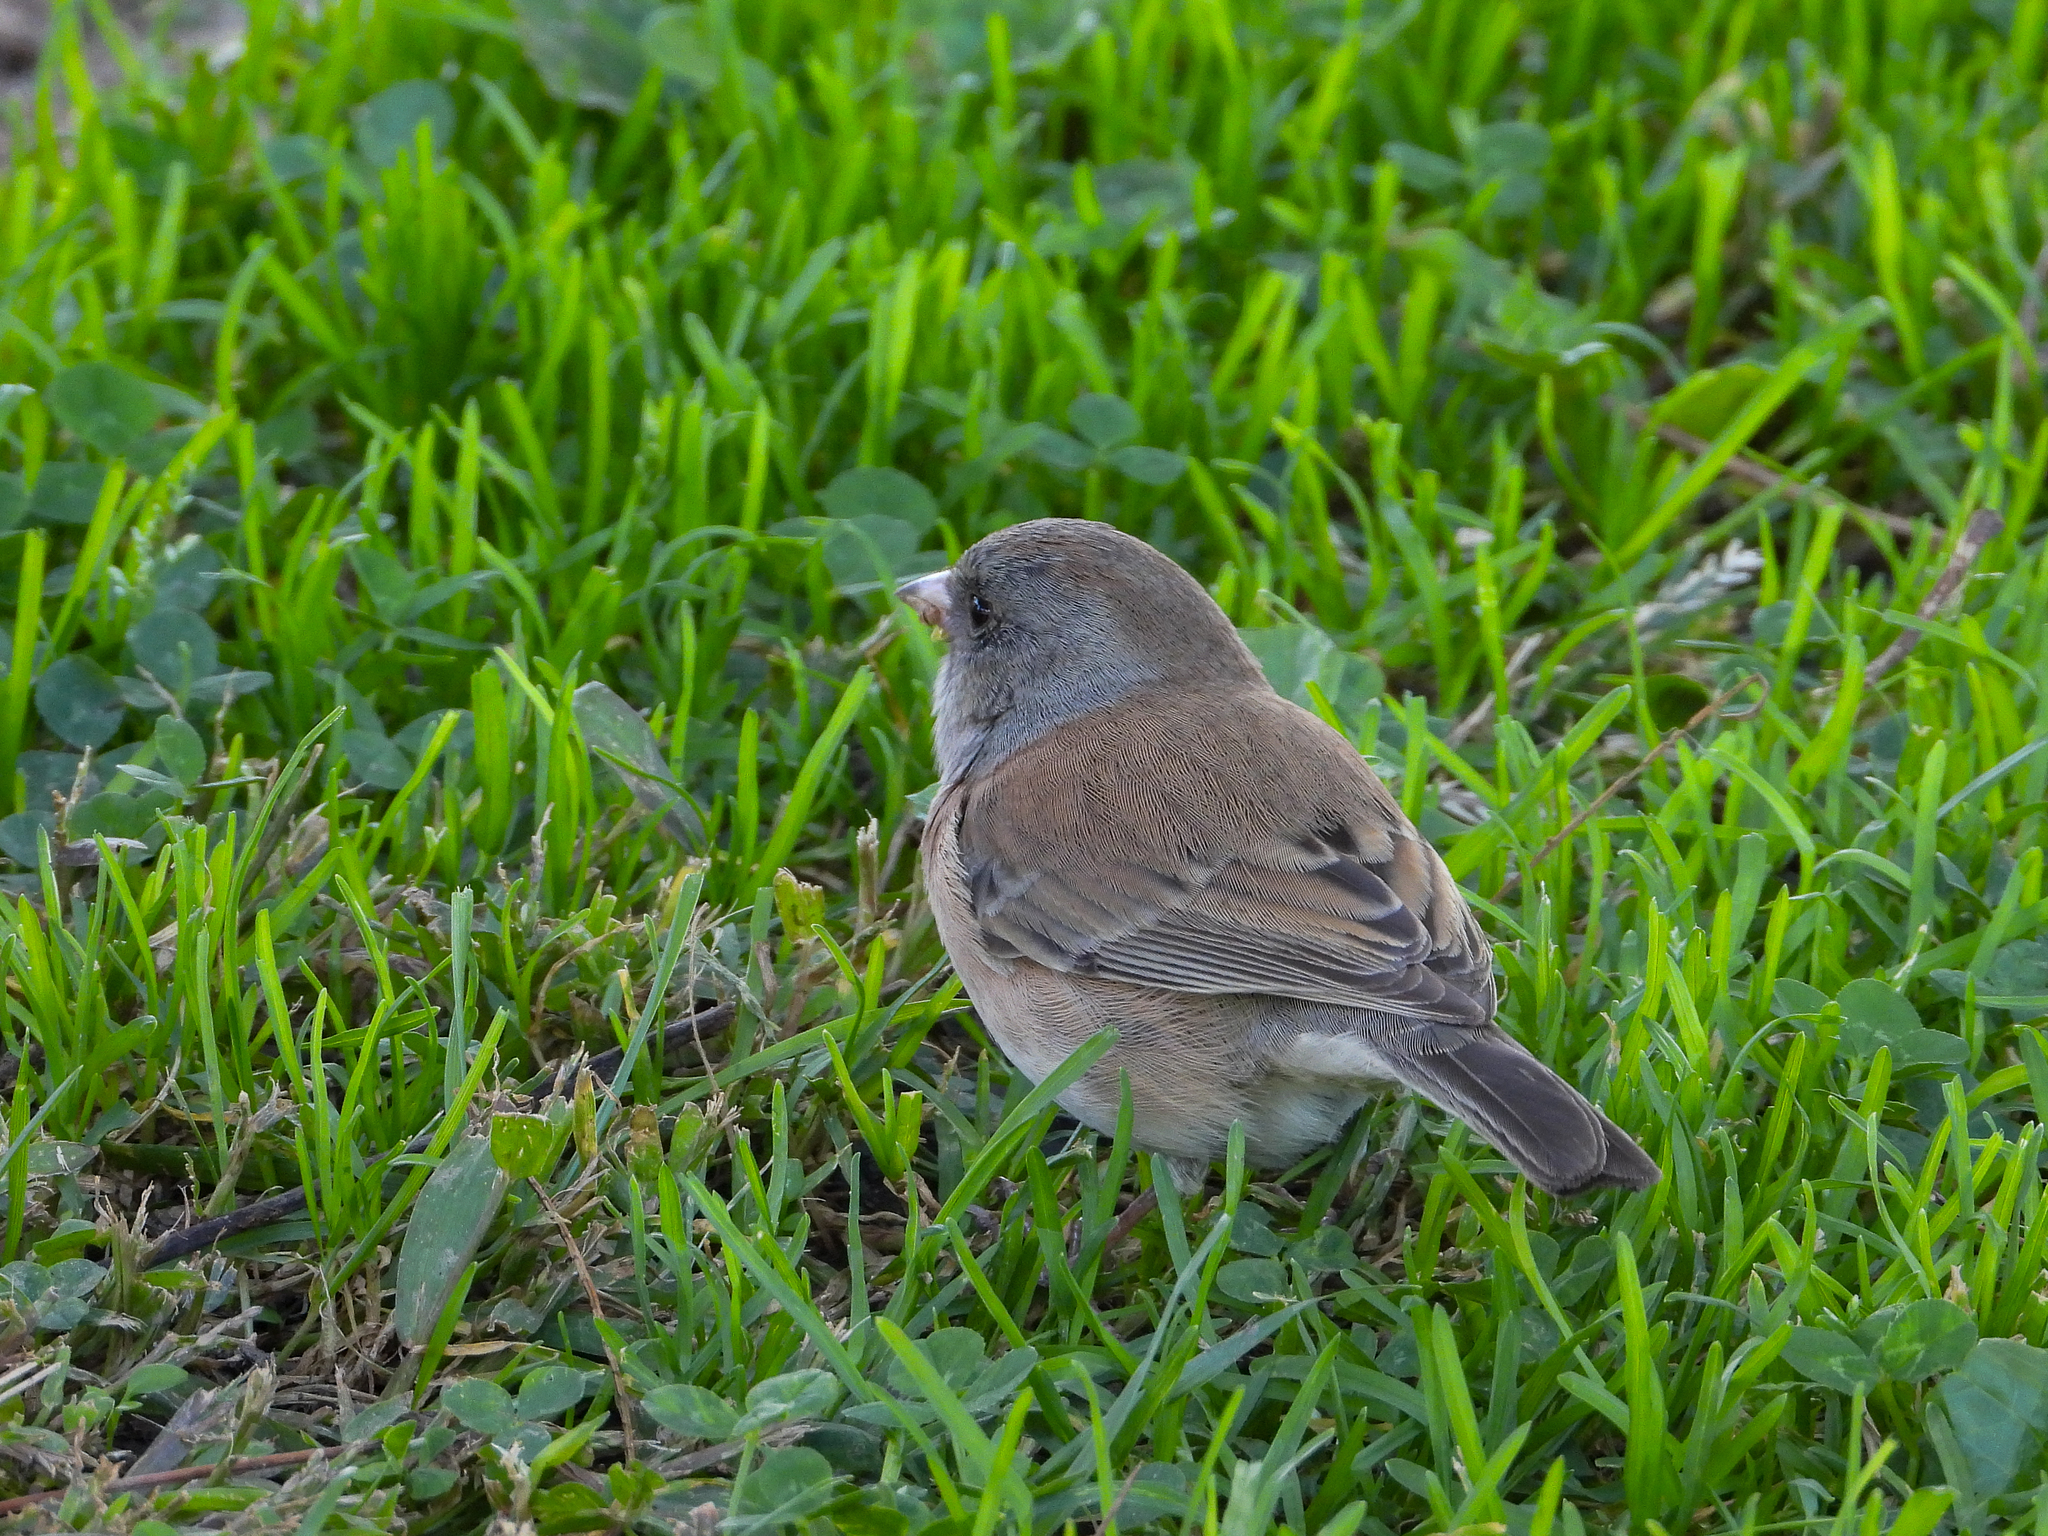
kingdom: Animalia
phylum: Chordata
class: Aves
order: Passeriformes
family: Passerellidae
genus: Junco
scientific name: Junco hyemalis
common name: Dark-eyed junco
